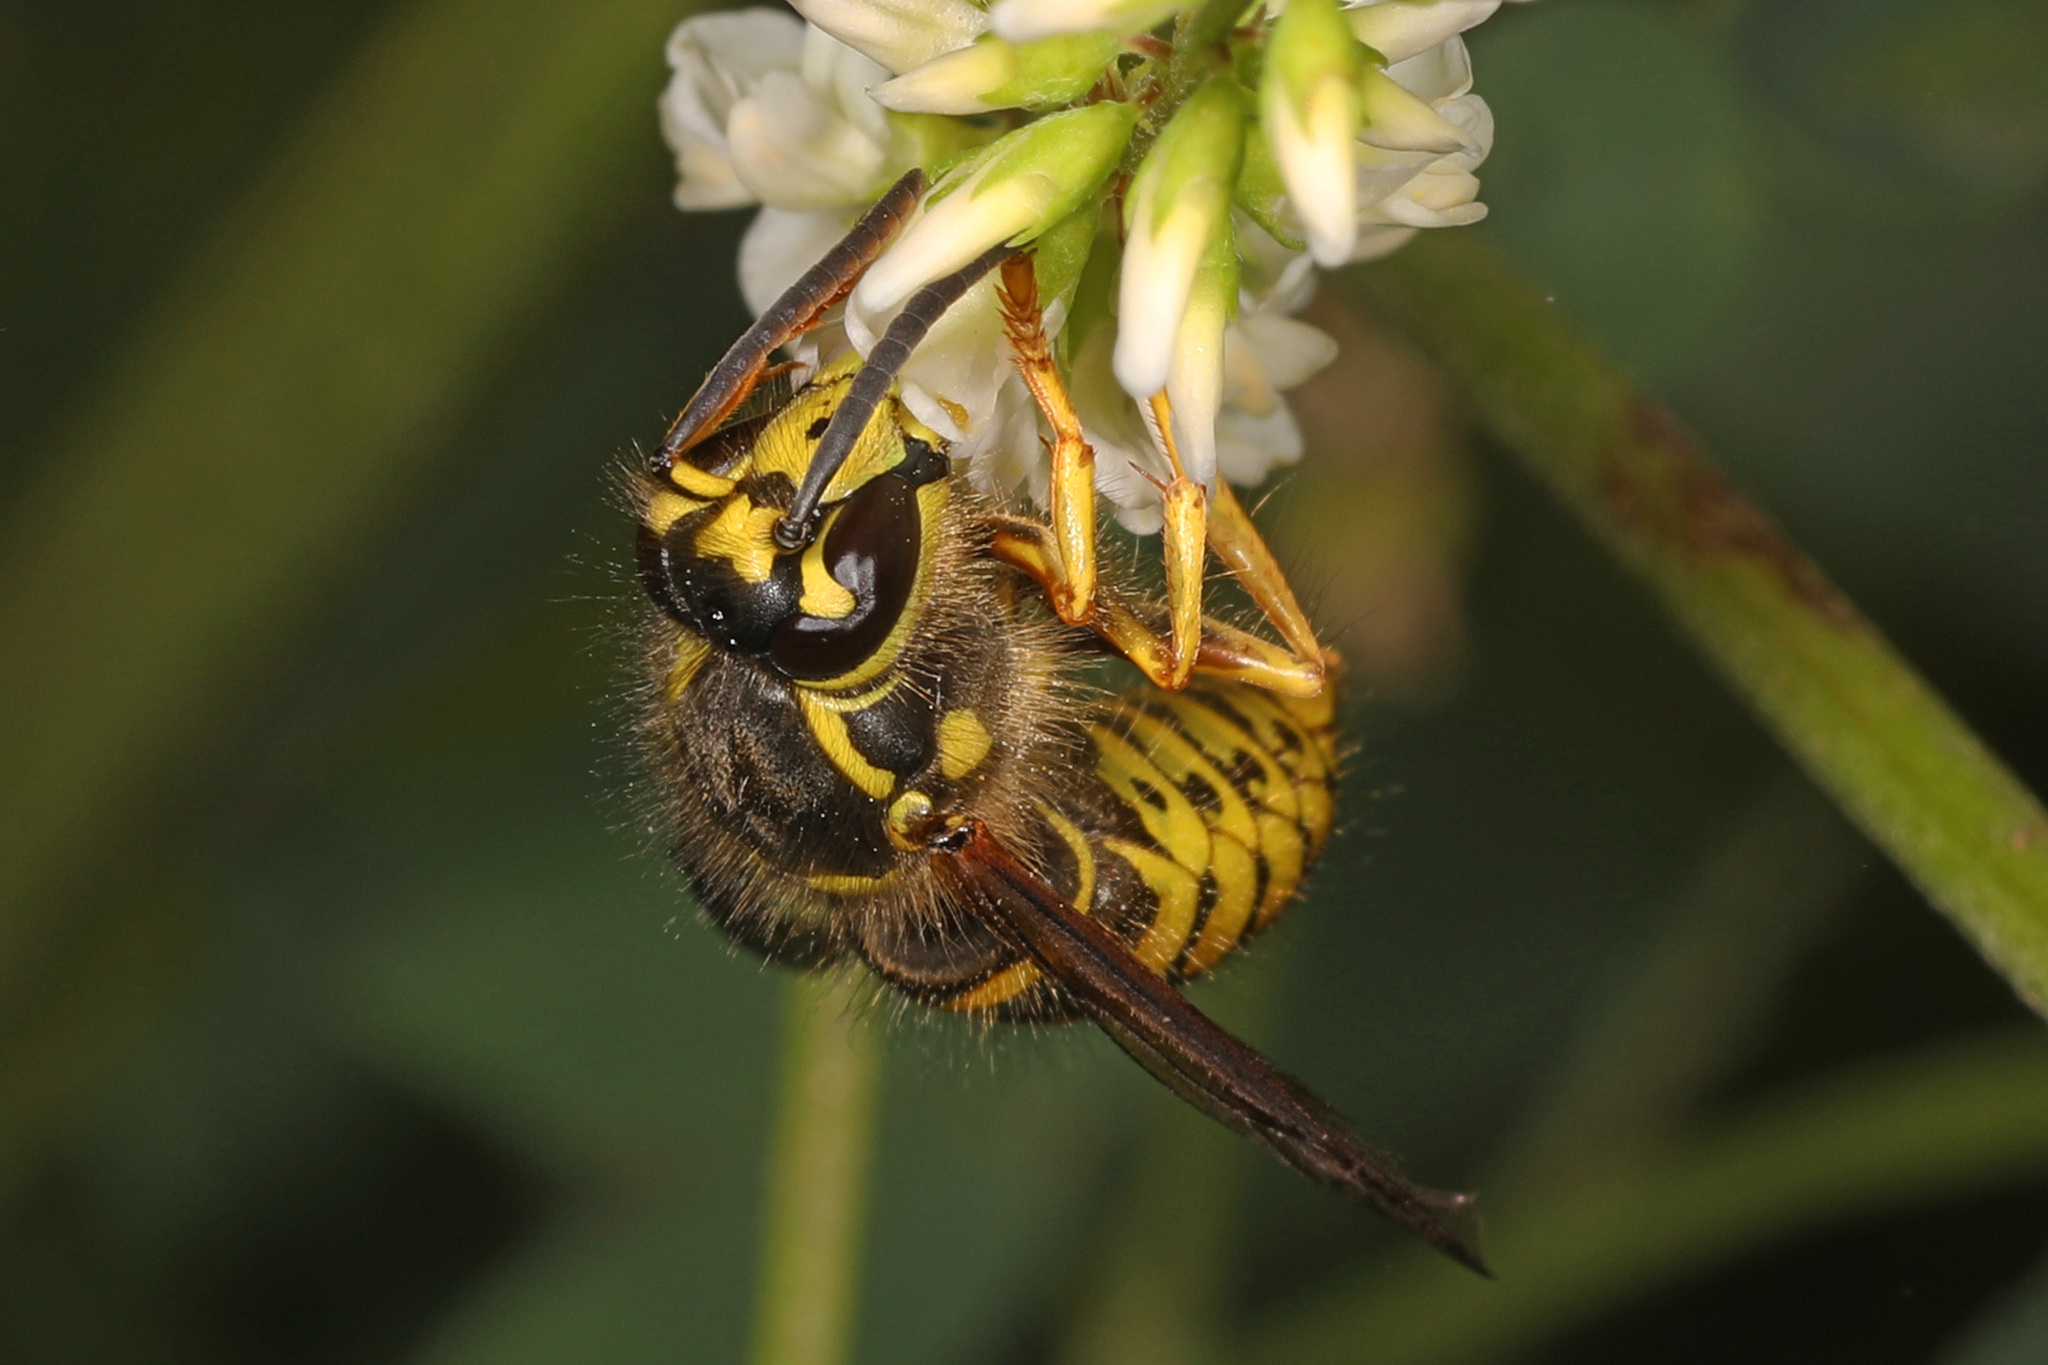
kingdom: Animalia
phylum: Arthropoda
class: Insecta
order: Hymenoptera
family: Vespidae
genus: Dolichovespula
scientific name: Dolichovespula arenaria
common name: Aerial yellowjacket
